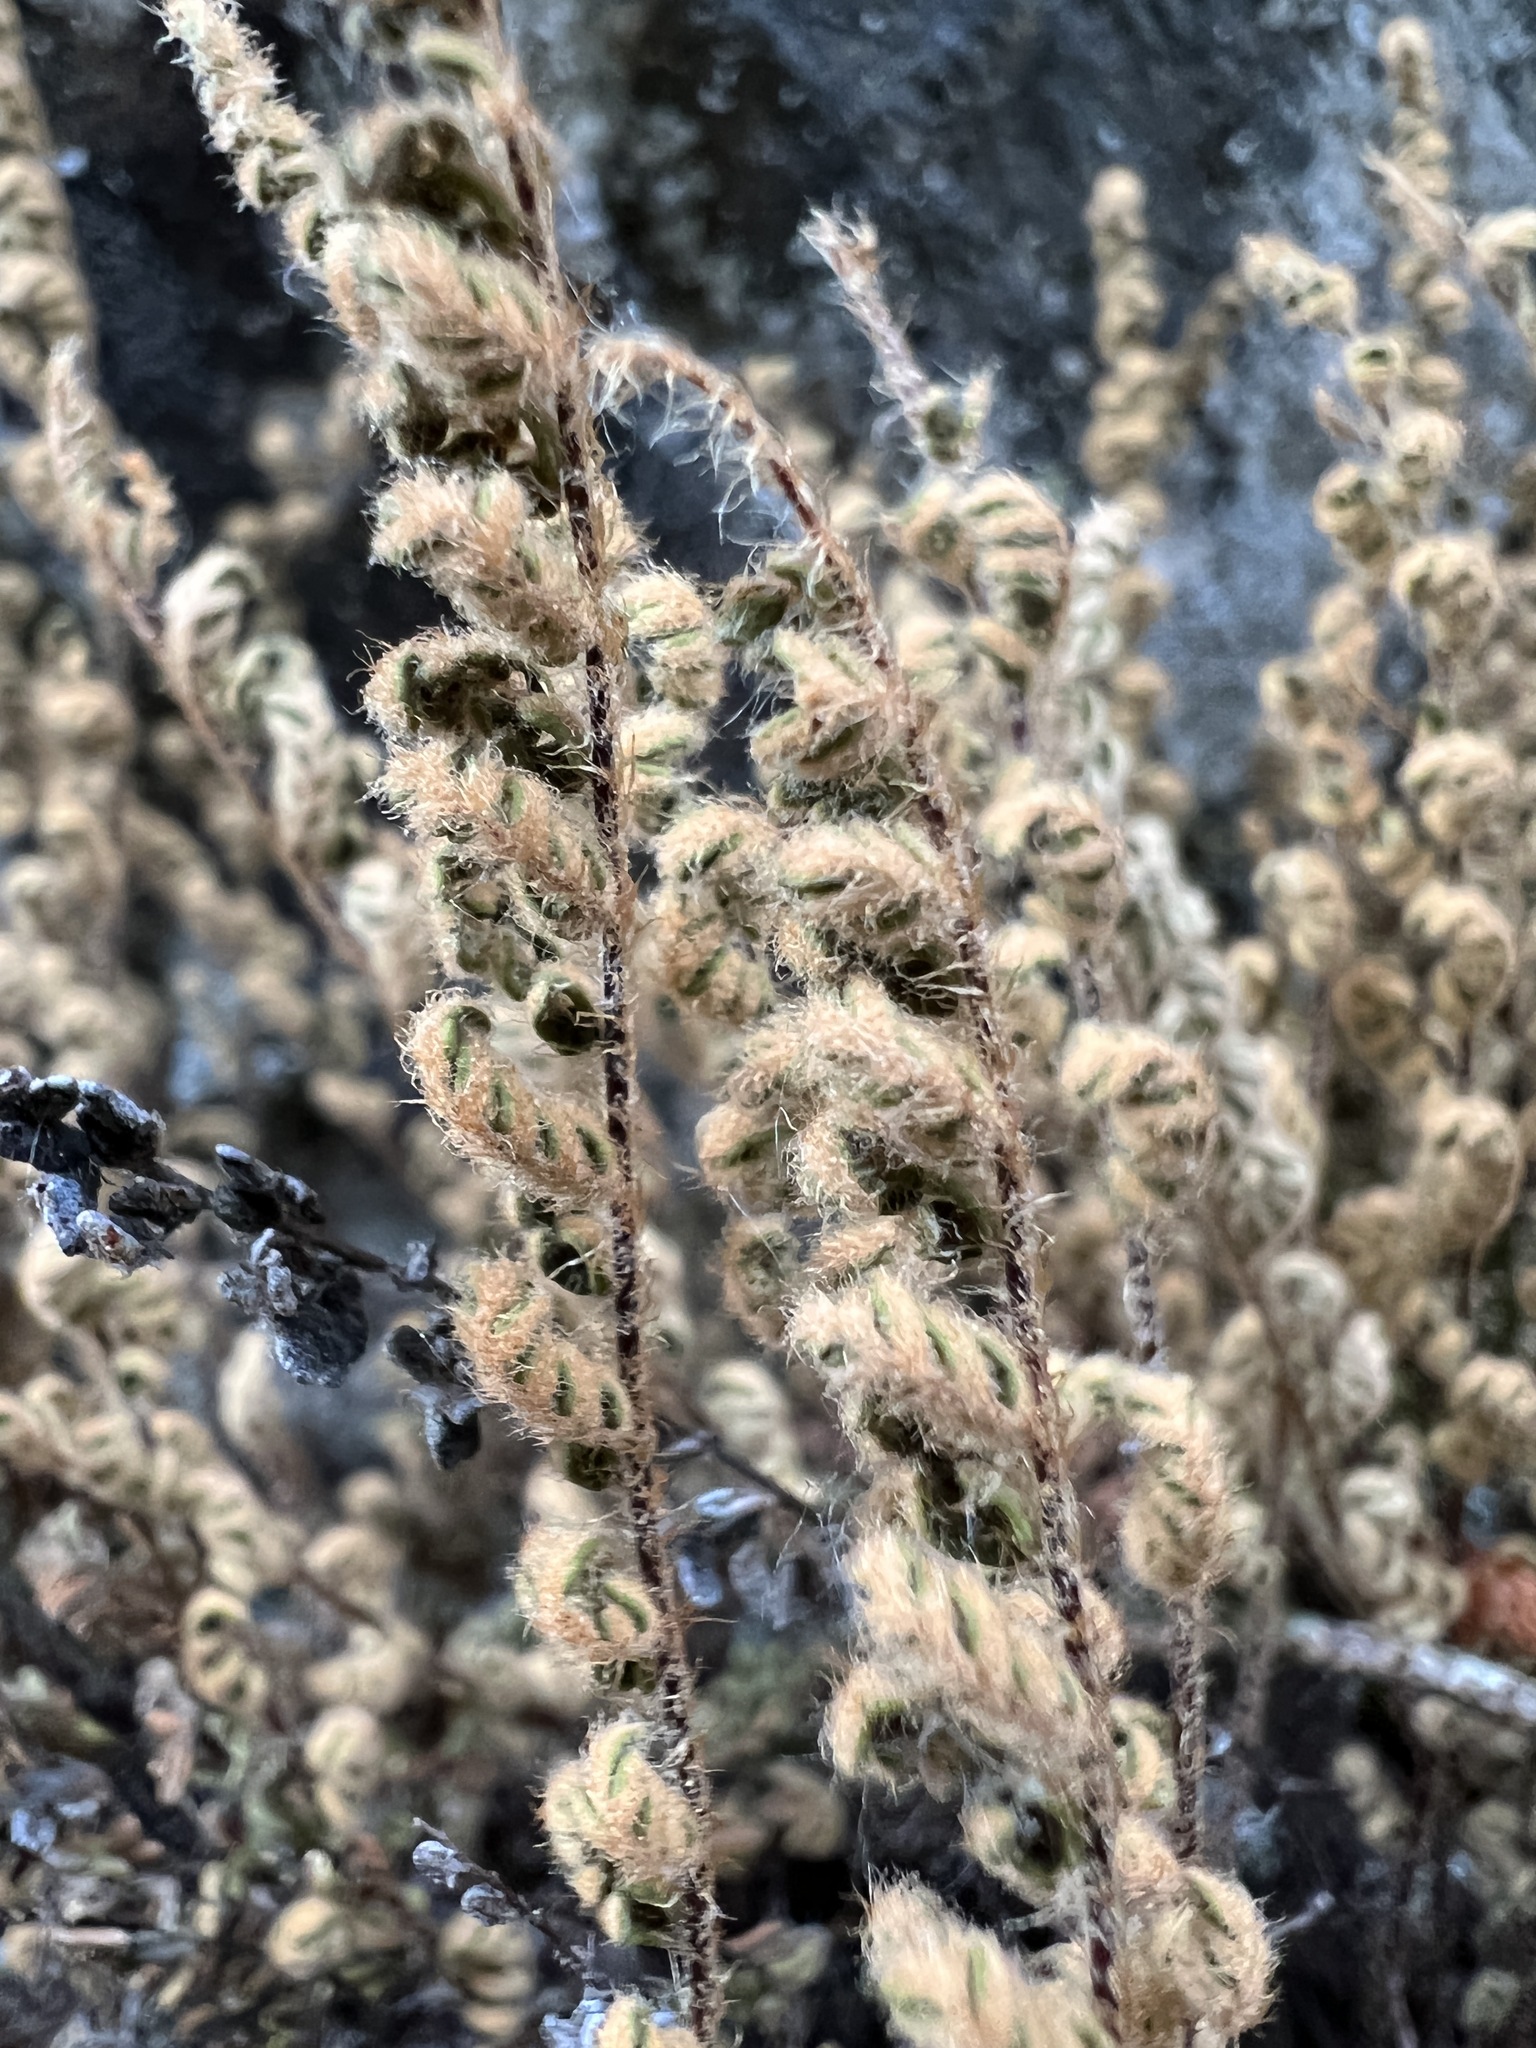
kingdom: Plantae
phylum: Tracheophyta
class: Polypodiopsida
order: Polypodiales
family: Pteridaceae
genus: Myriopteris
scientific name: Myriopteris gracillima
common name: Lace fern
